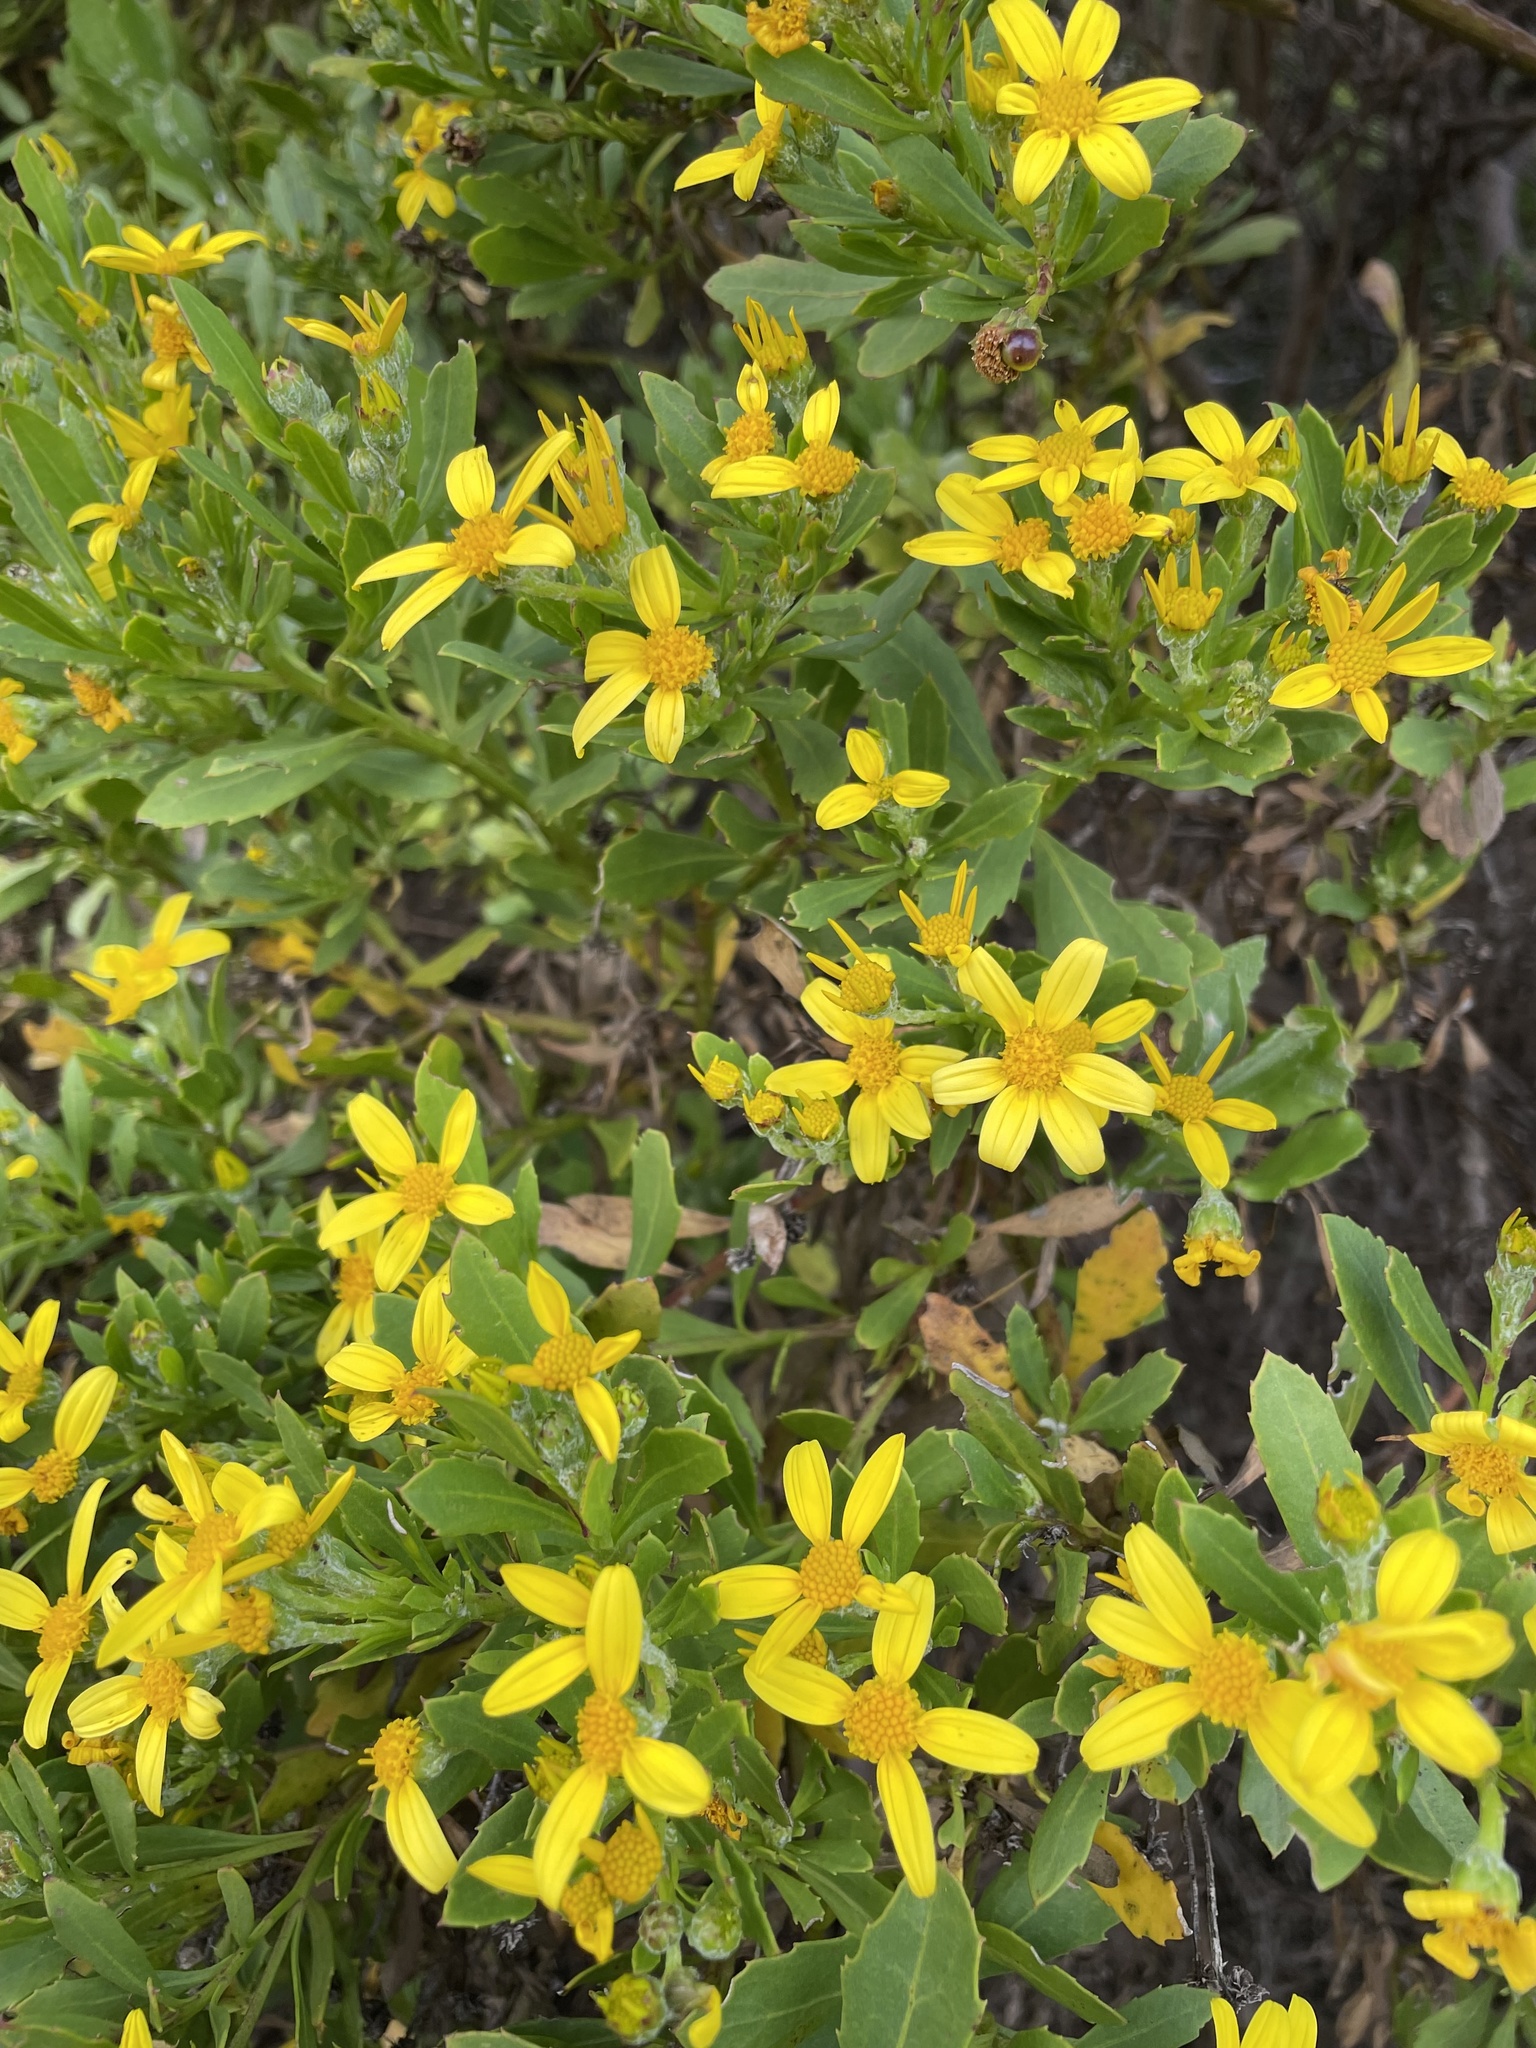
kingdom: Plantae
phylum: Tracheophyta
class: Magnoliopsida
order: Asterales
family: Asteraceae
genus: Osteospermum
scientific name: Osteospermum moniliferum
